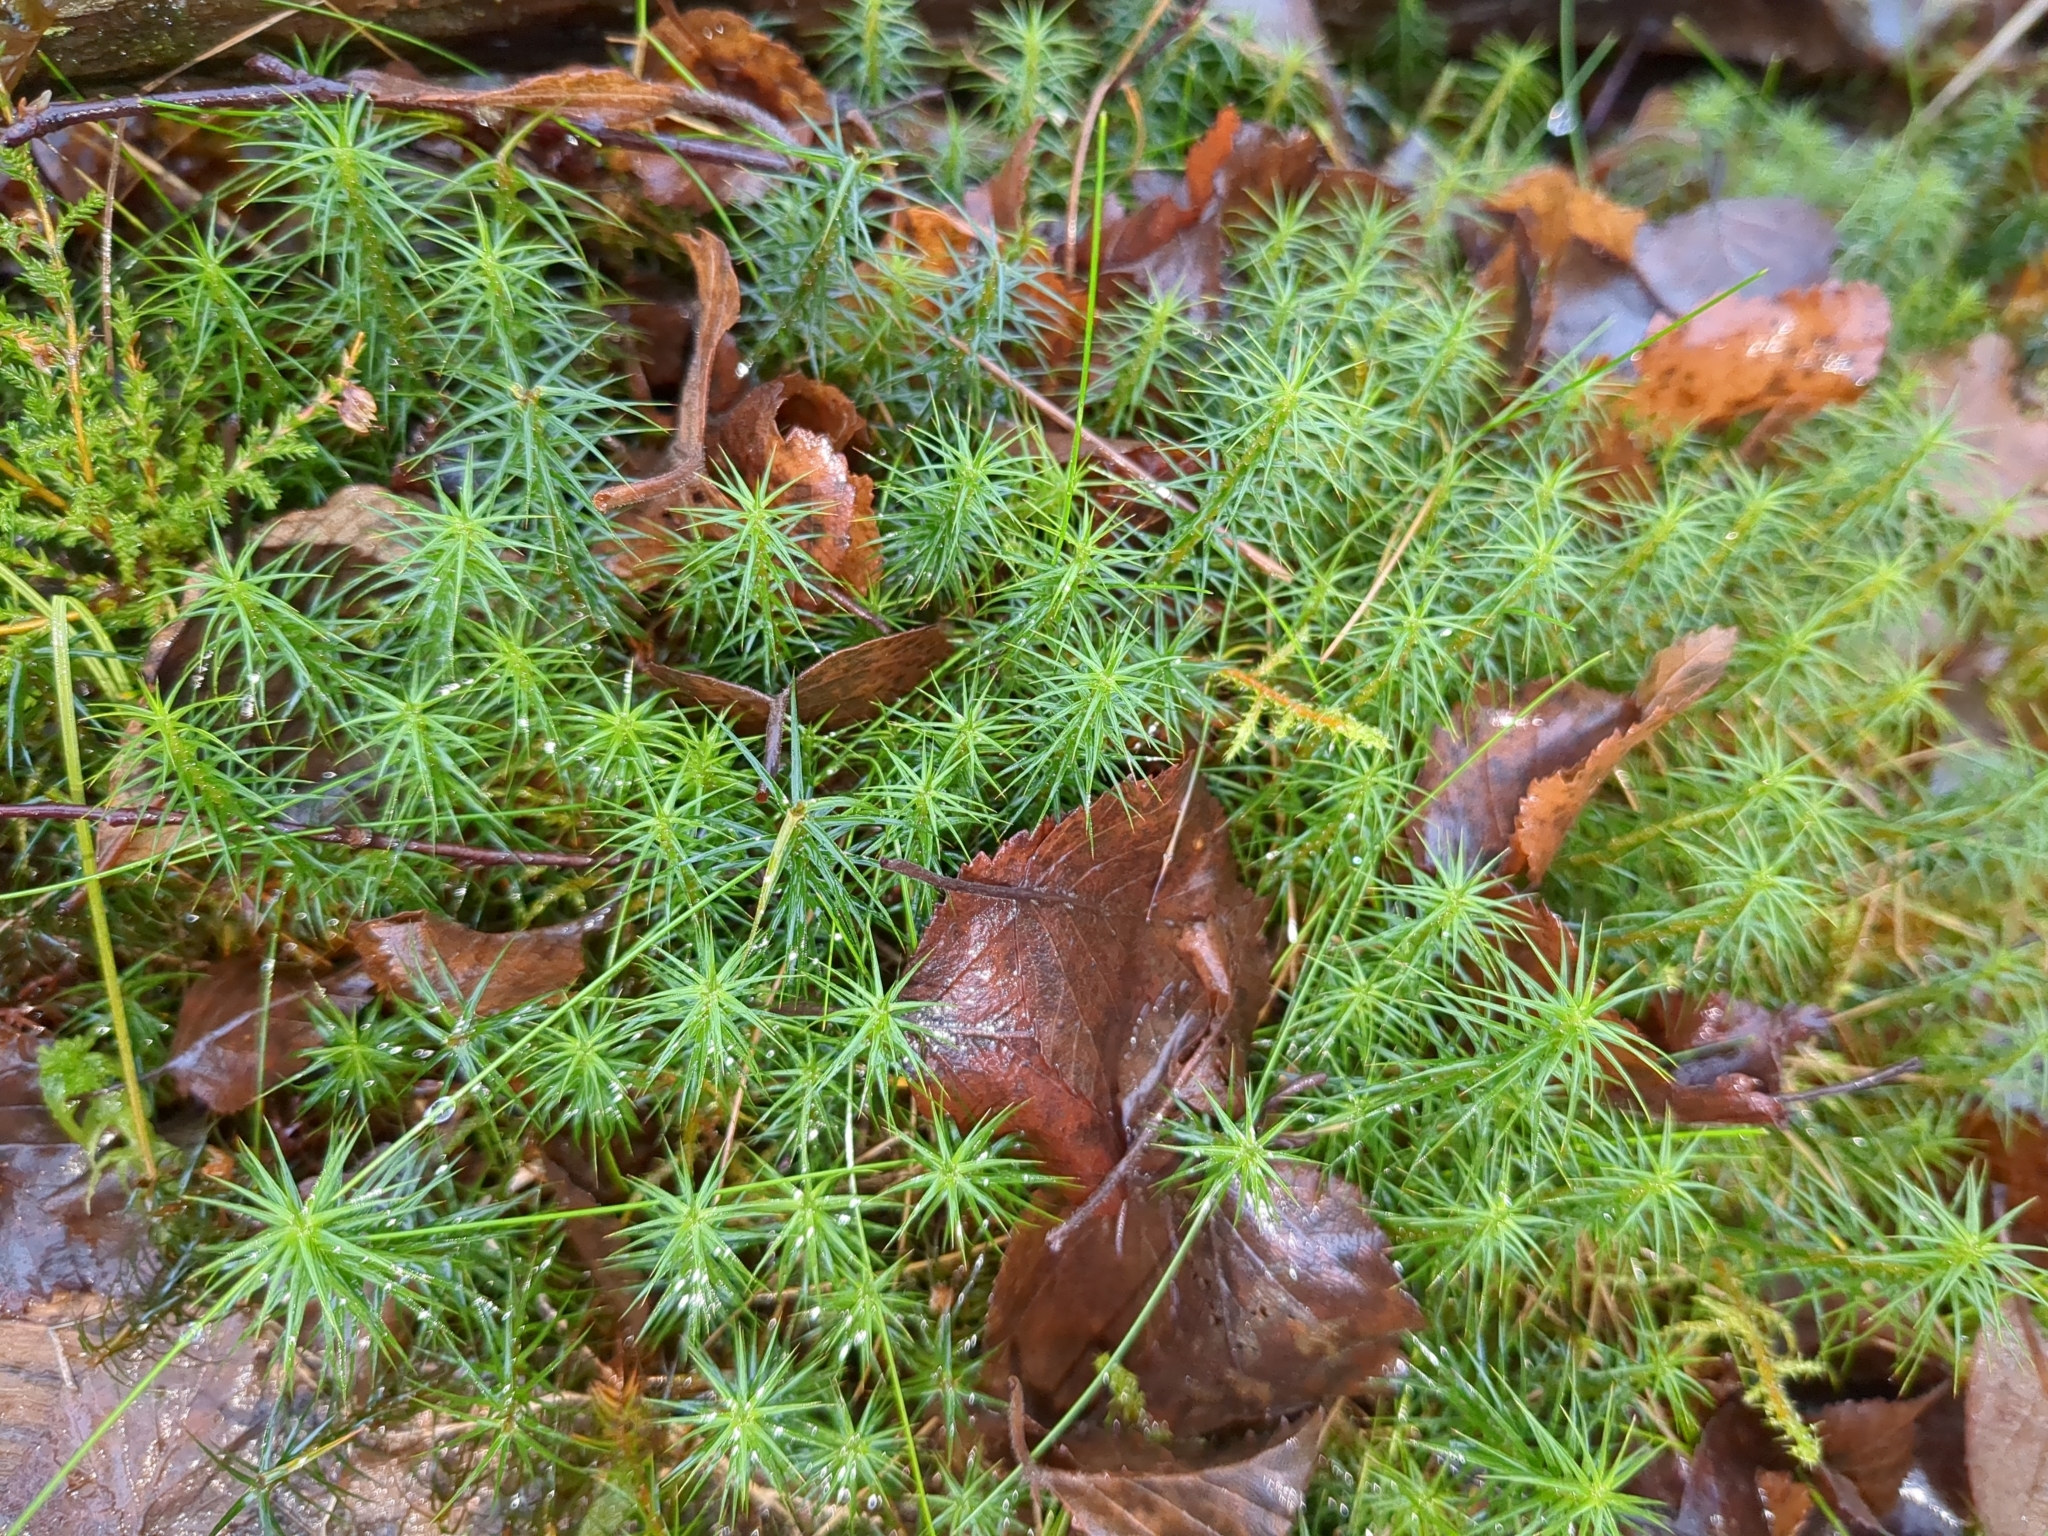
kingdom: Plantae
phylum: Bryophyta
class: Polytrichopsida
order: Polytrichales
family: Polytrichaceae
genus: Polytrichum
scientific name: Polytrichum commune
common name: Common haircap
